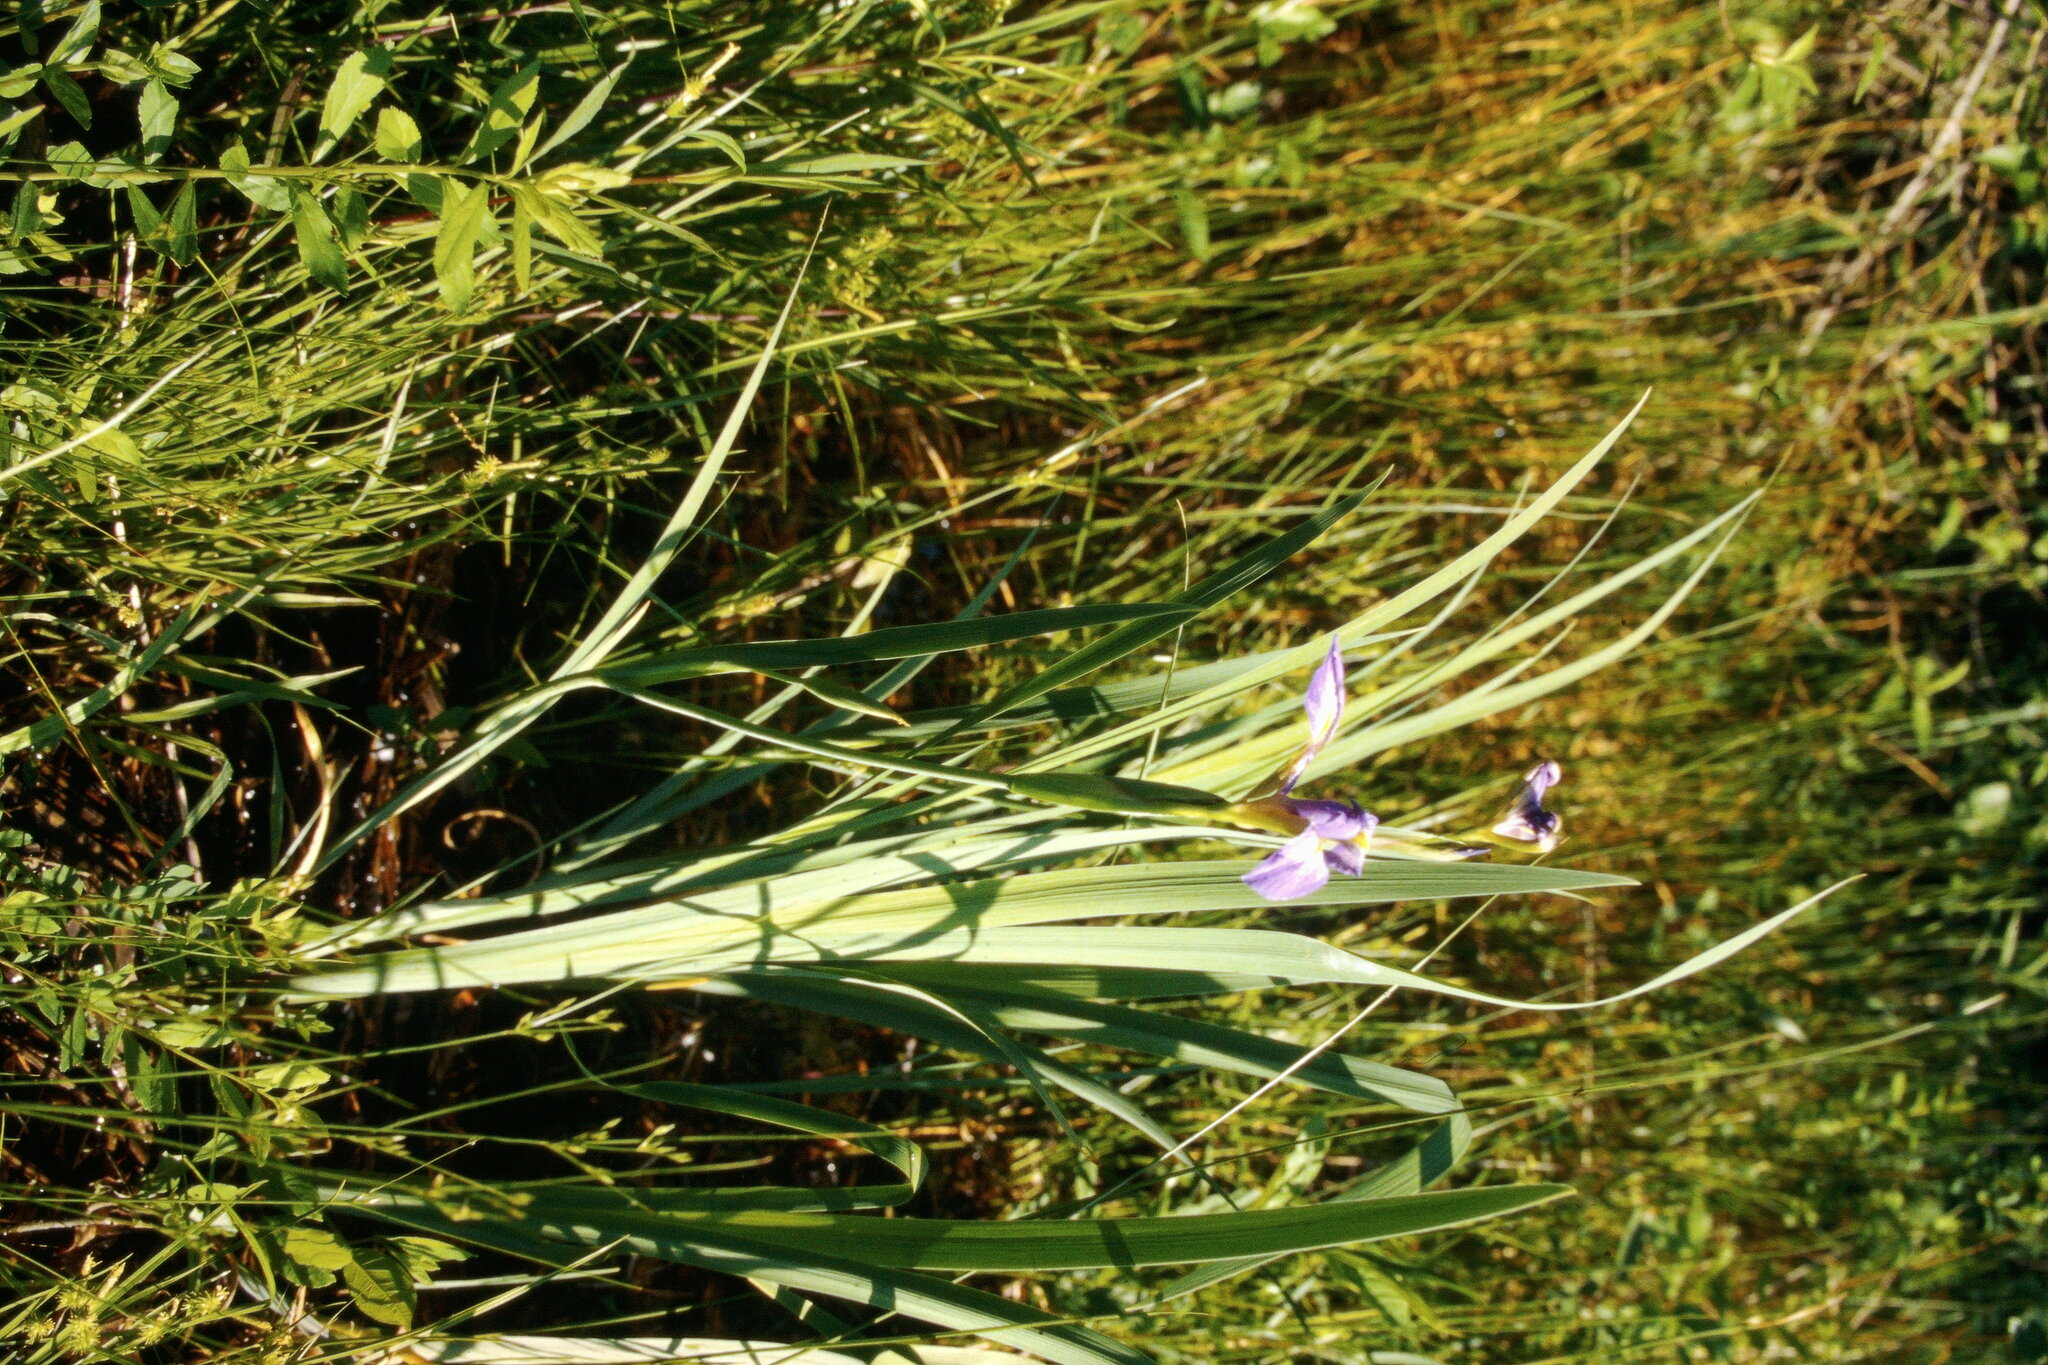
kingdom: Plantae
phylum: Tracheophyta
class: Liliopsida
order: Asparagales
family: Iridaceae
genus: Iris
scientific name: Iris virginica
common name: Southern blue flag
